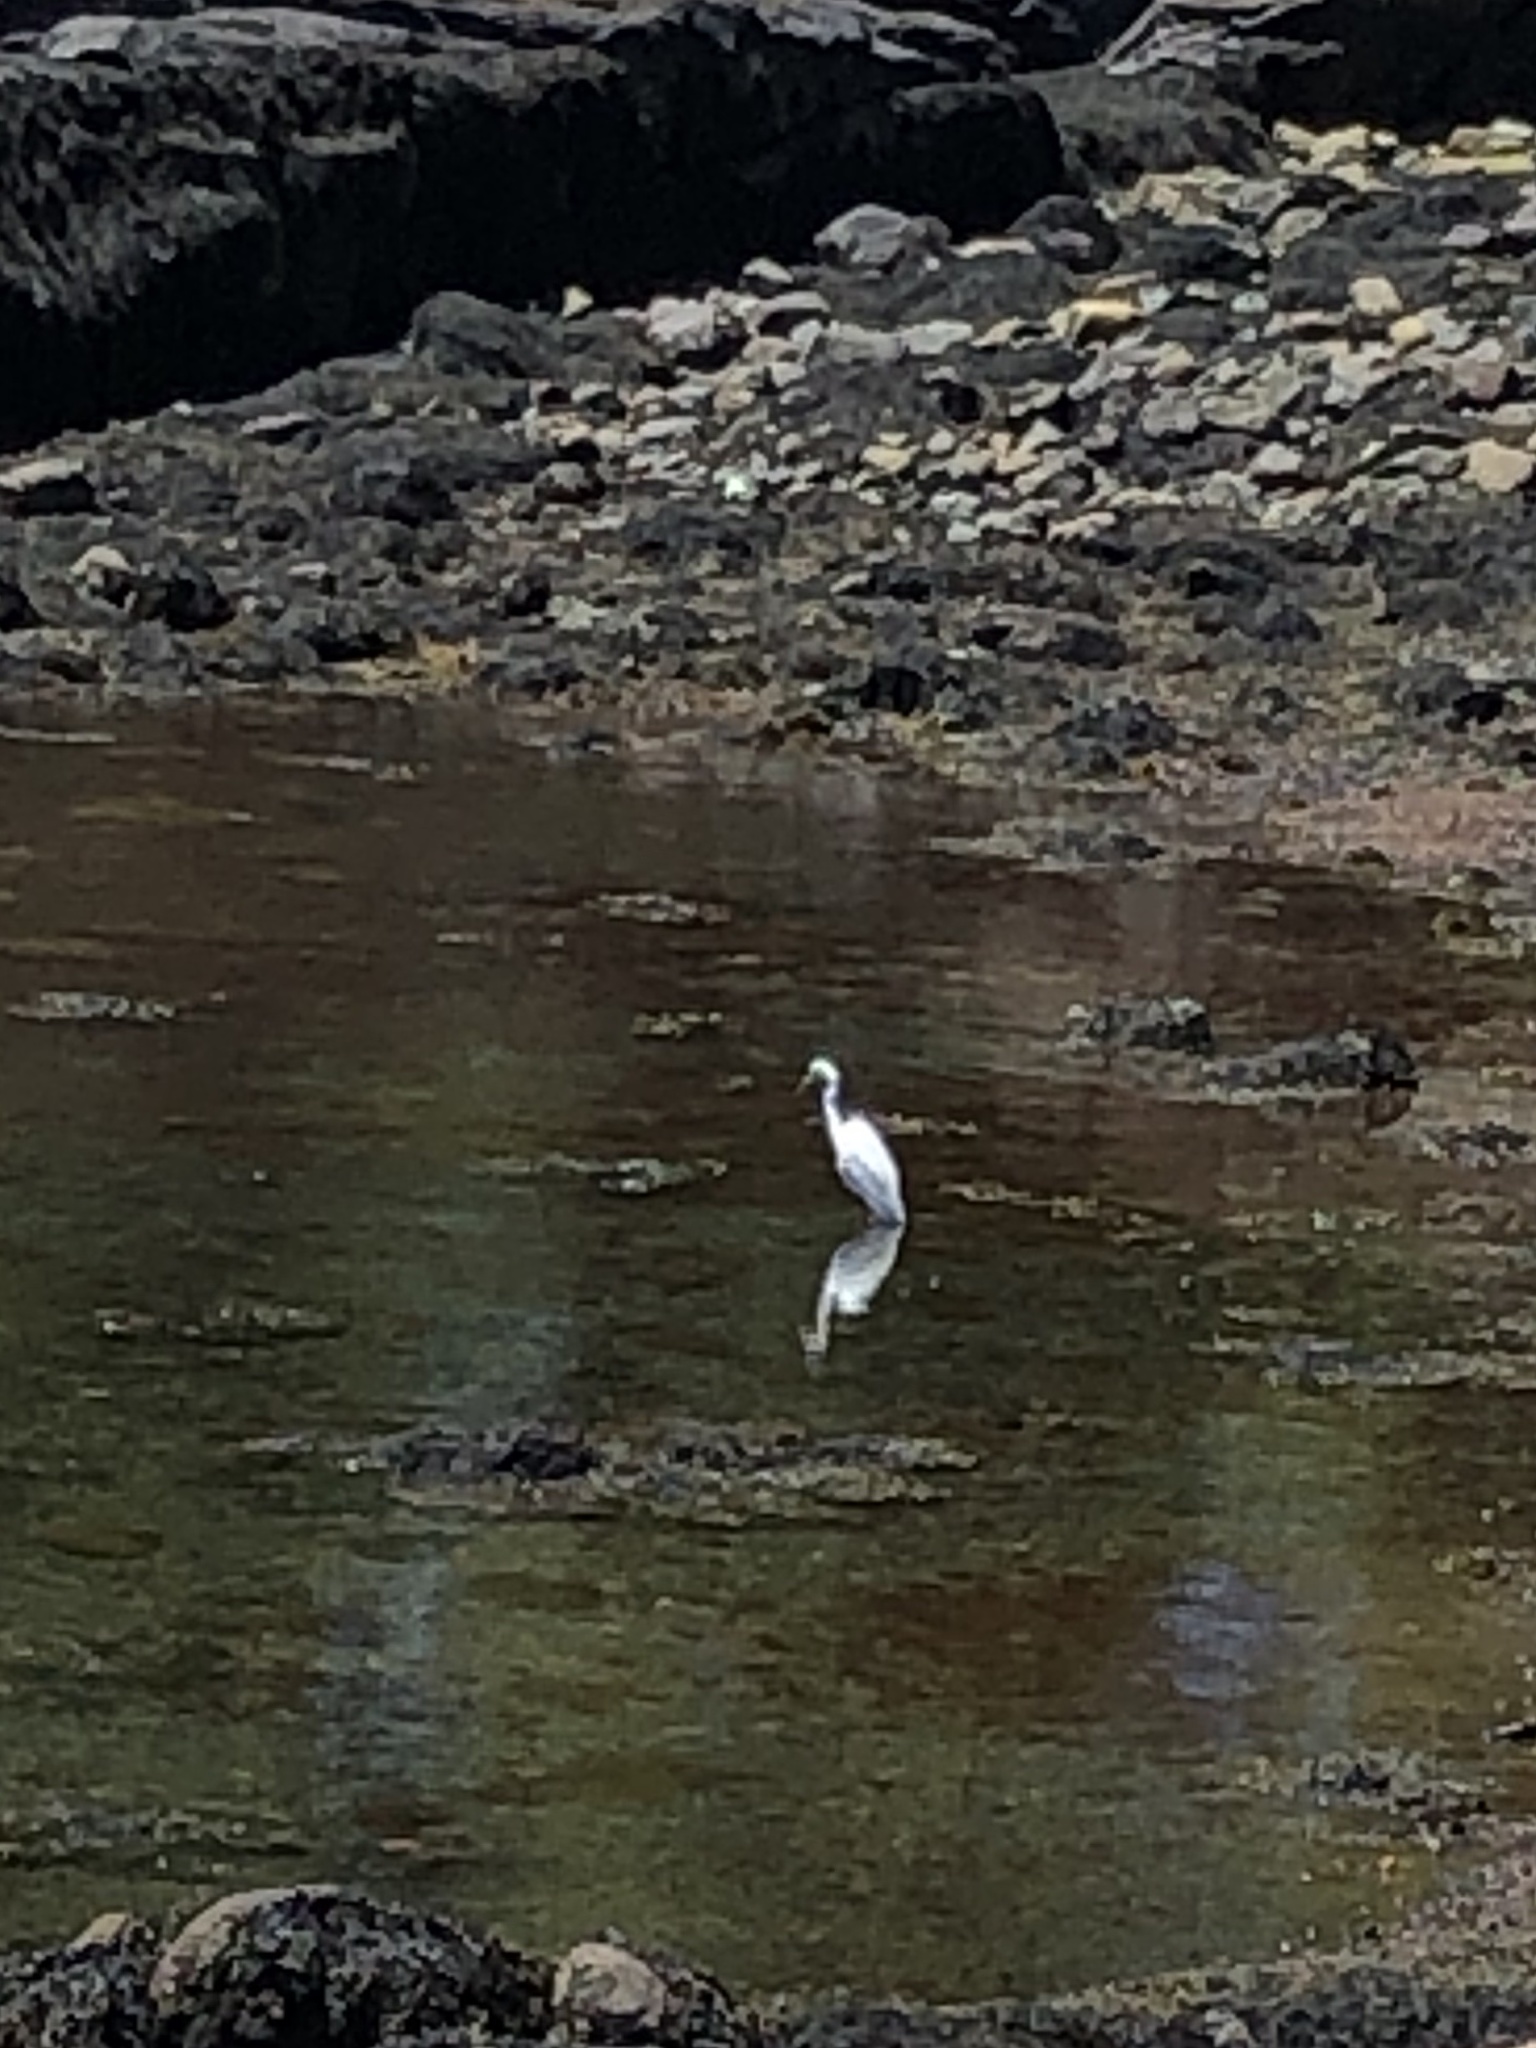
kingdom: Animalia
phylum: Chordata
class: Aves
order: Pelecaniformes
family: Ardeidae
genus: Ardea
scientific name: Ardea alba
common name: Great egret
